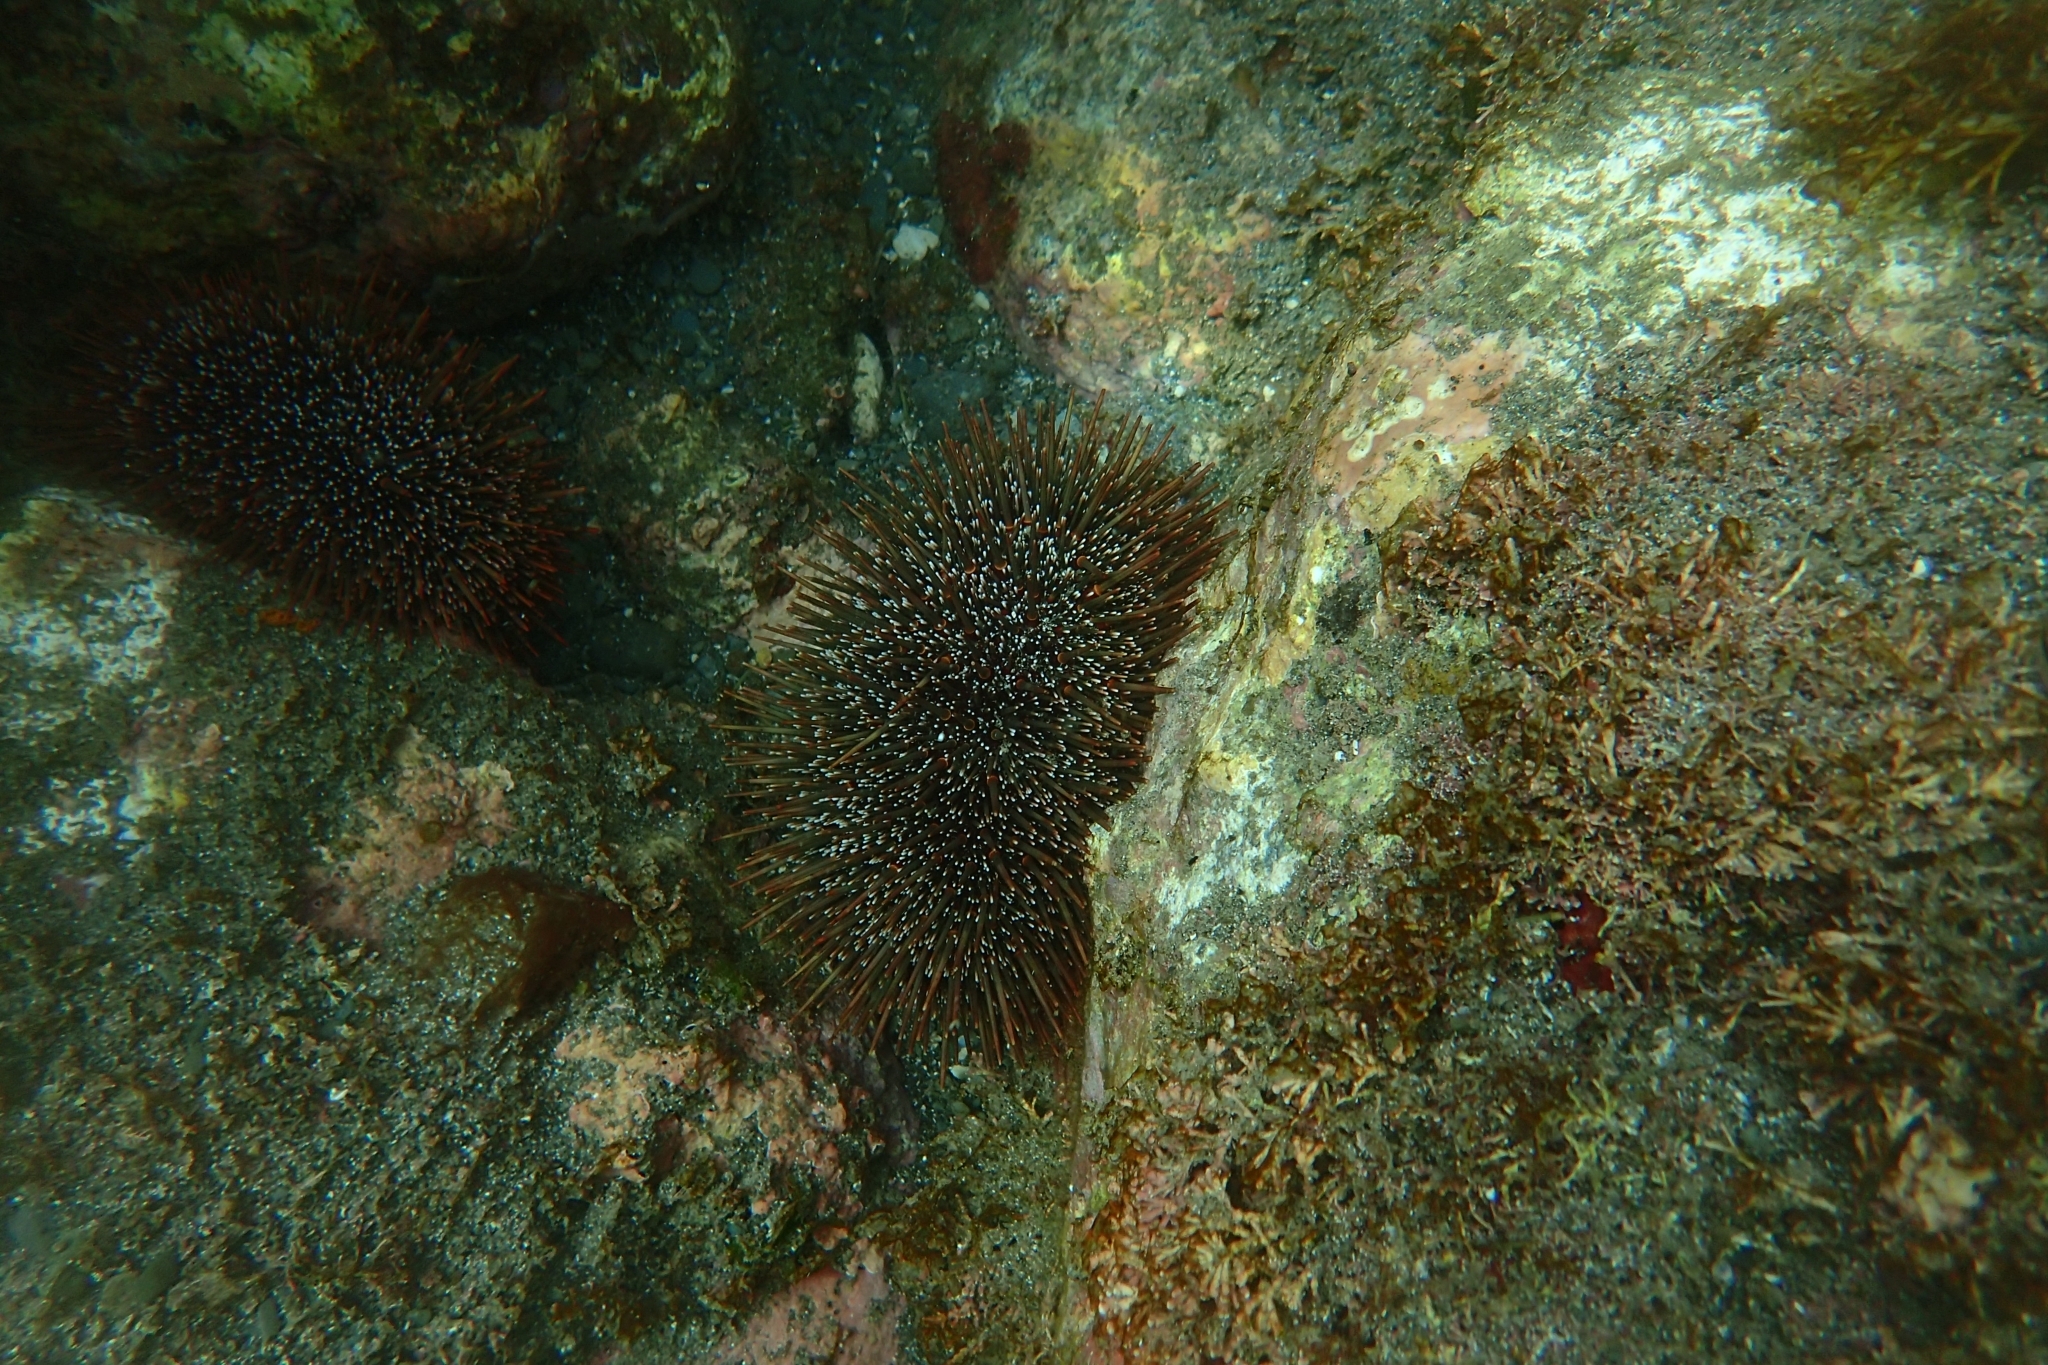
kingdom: Animalia
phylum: Echinodermata
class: Echinoidea
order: Camarodonta
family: Echinometridae
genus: Evechinus
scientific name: Evechinus chloroticus
